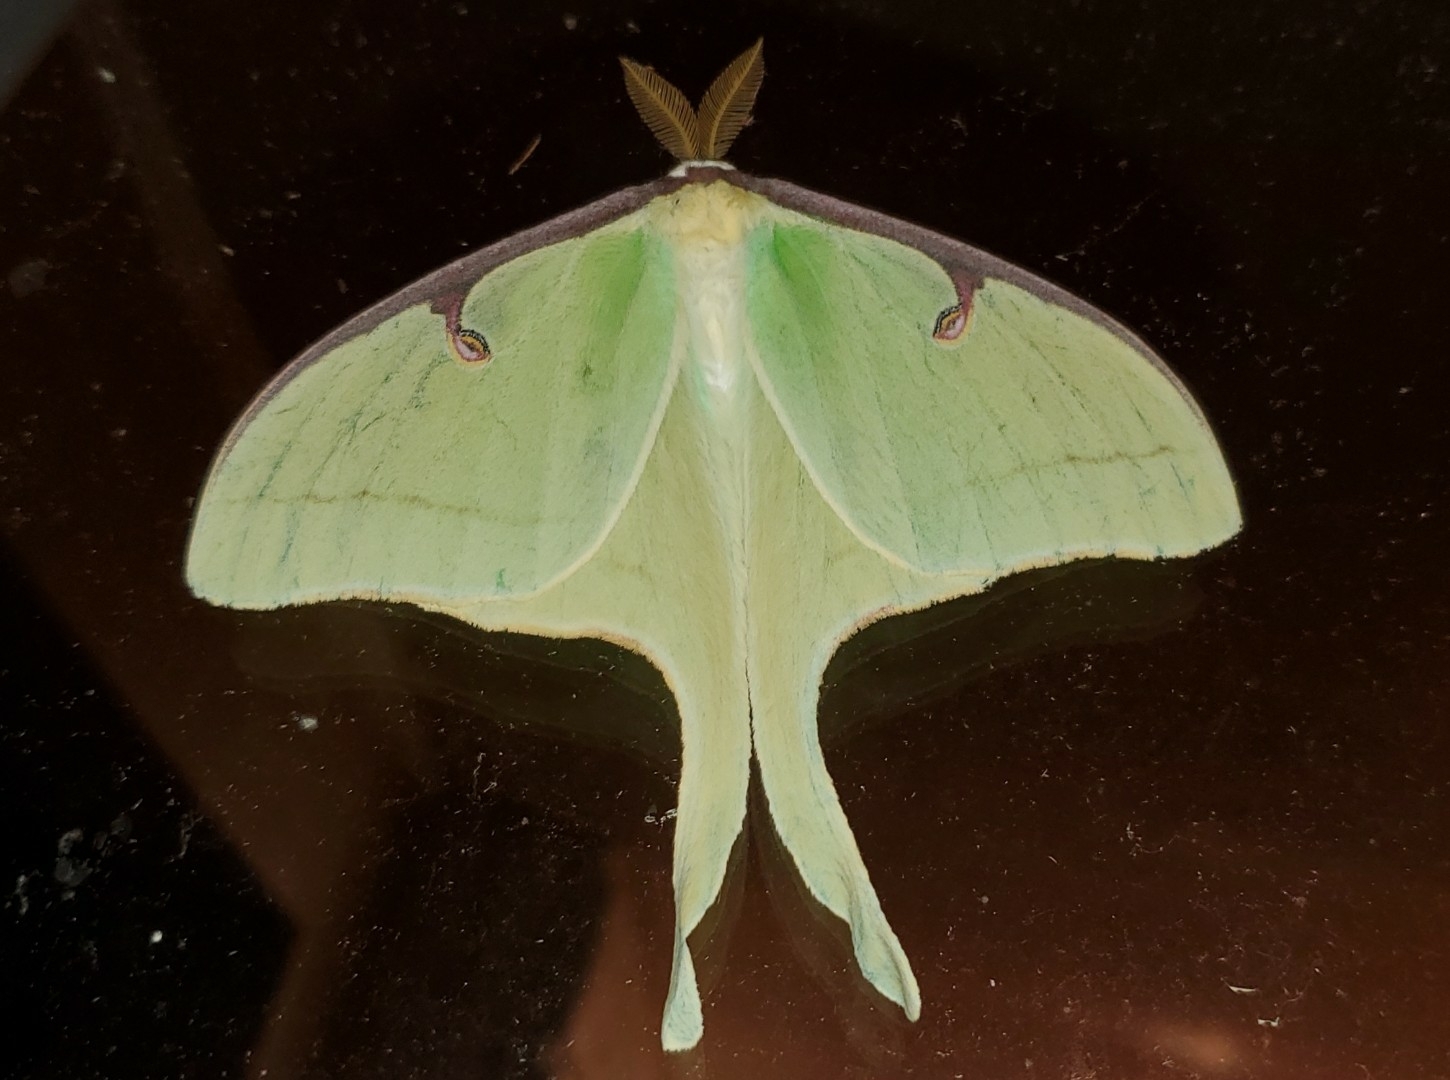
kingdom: Animalia
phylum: Arthropoda
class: Insecta
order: Lepidoptera
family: Saturniidae
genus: Actias
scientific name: Actias luna
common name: Luna moth
